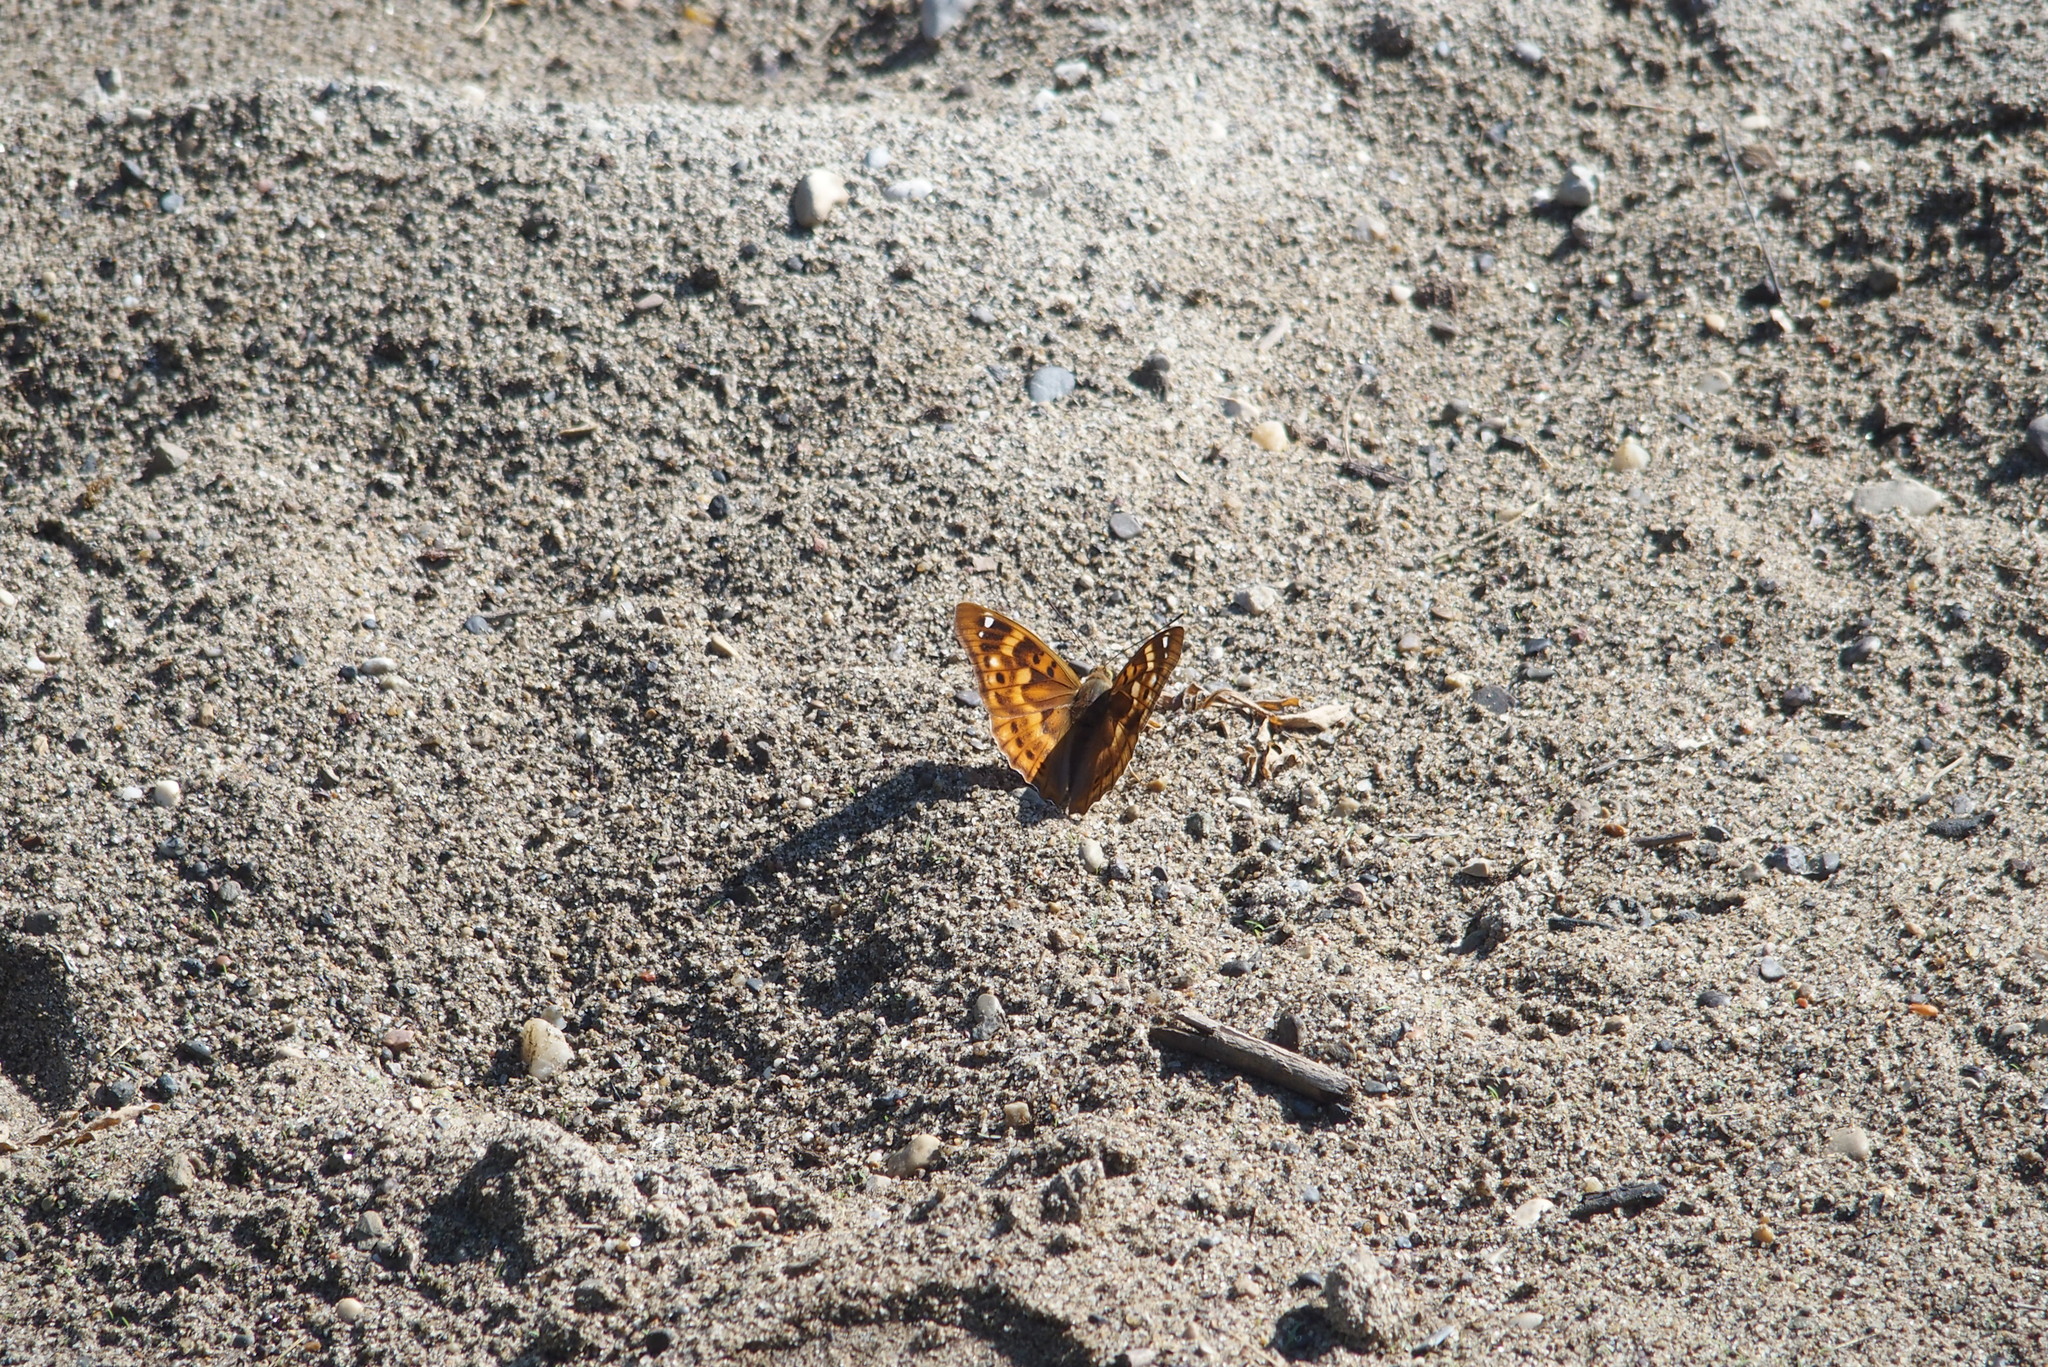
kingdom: Animalia
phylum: Arthropoda
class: Insecta
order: Lepidoptera
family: Nymphalidae
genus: Apatura
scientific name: Apatura ilia
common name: Lesser purple emperor
